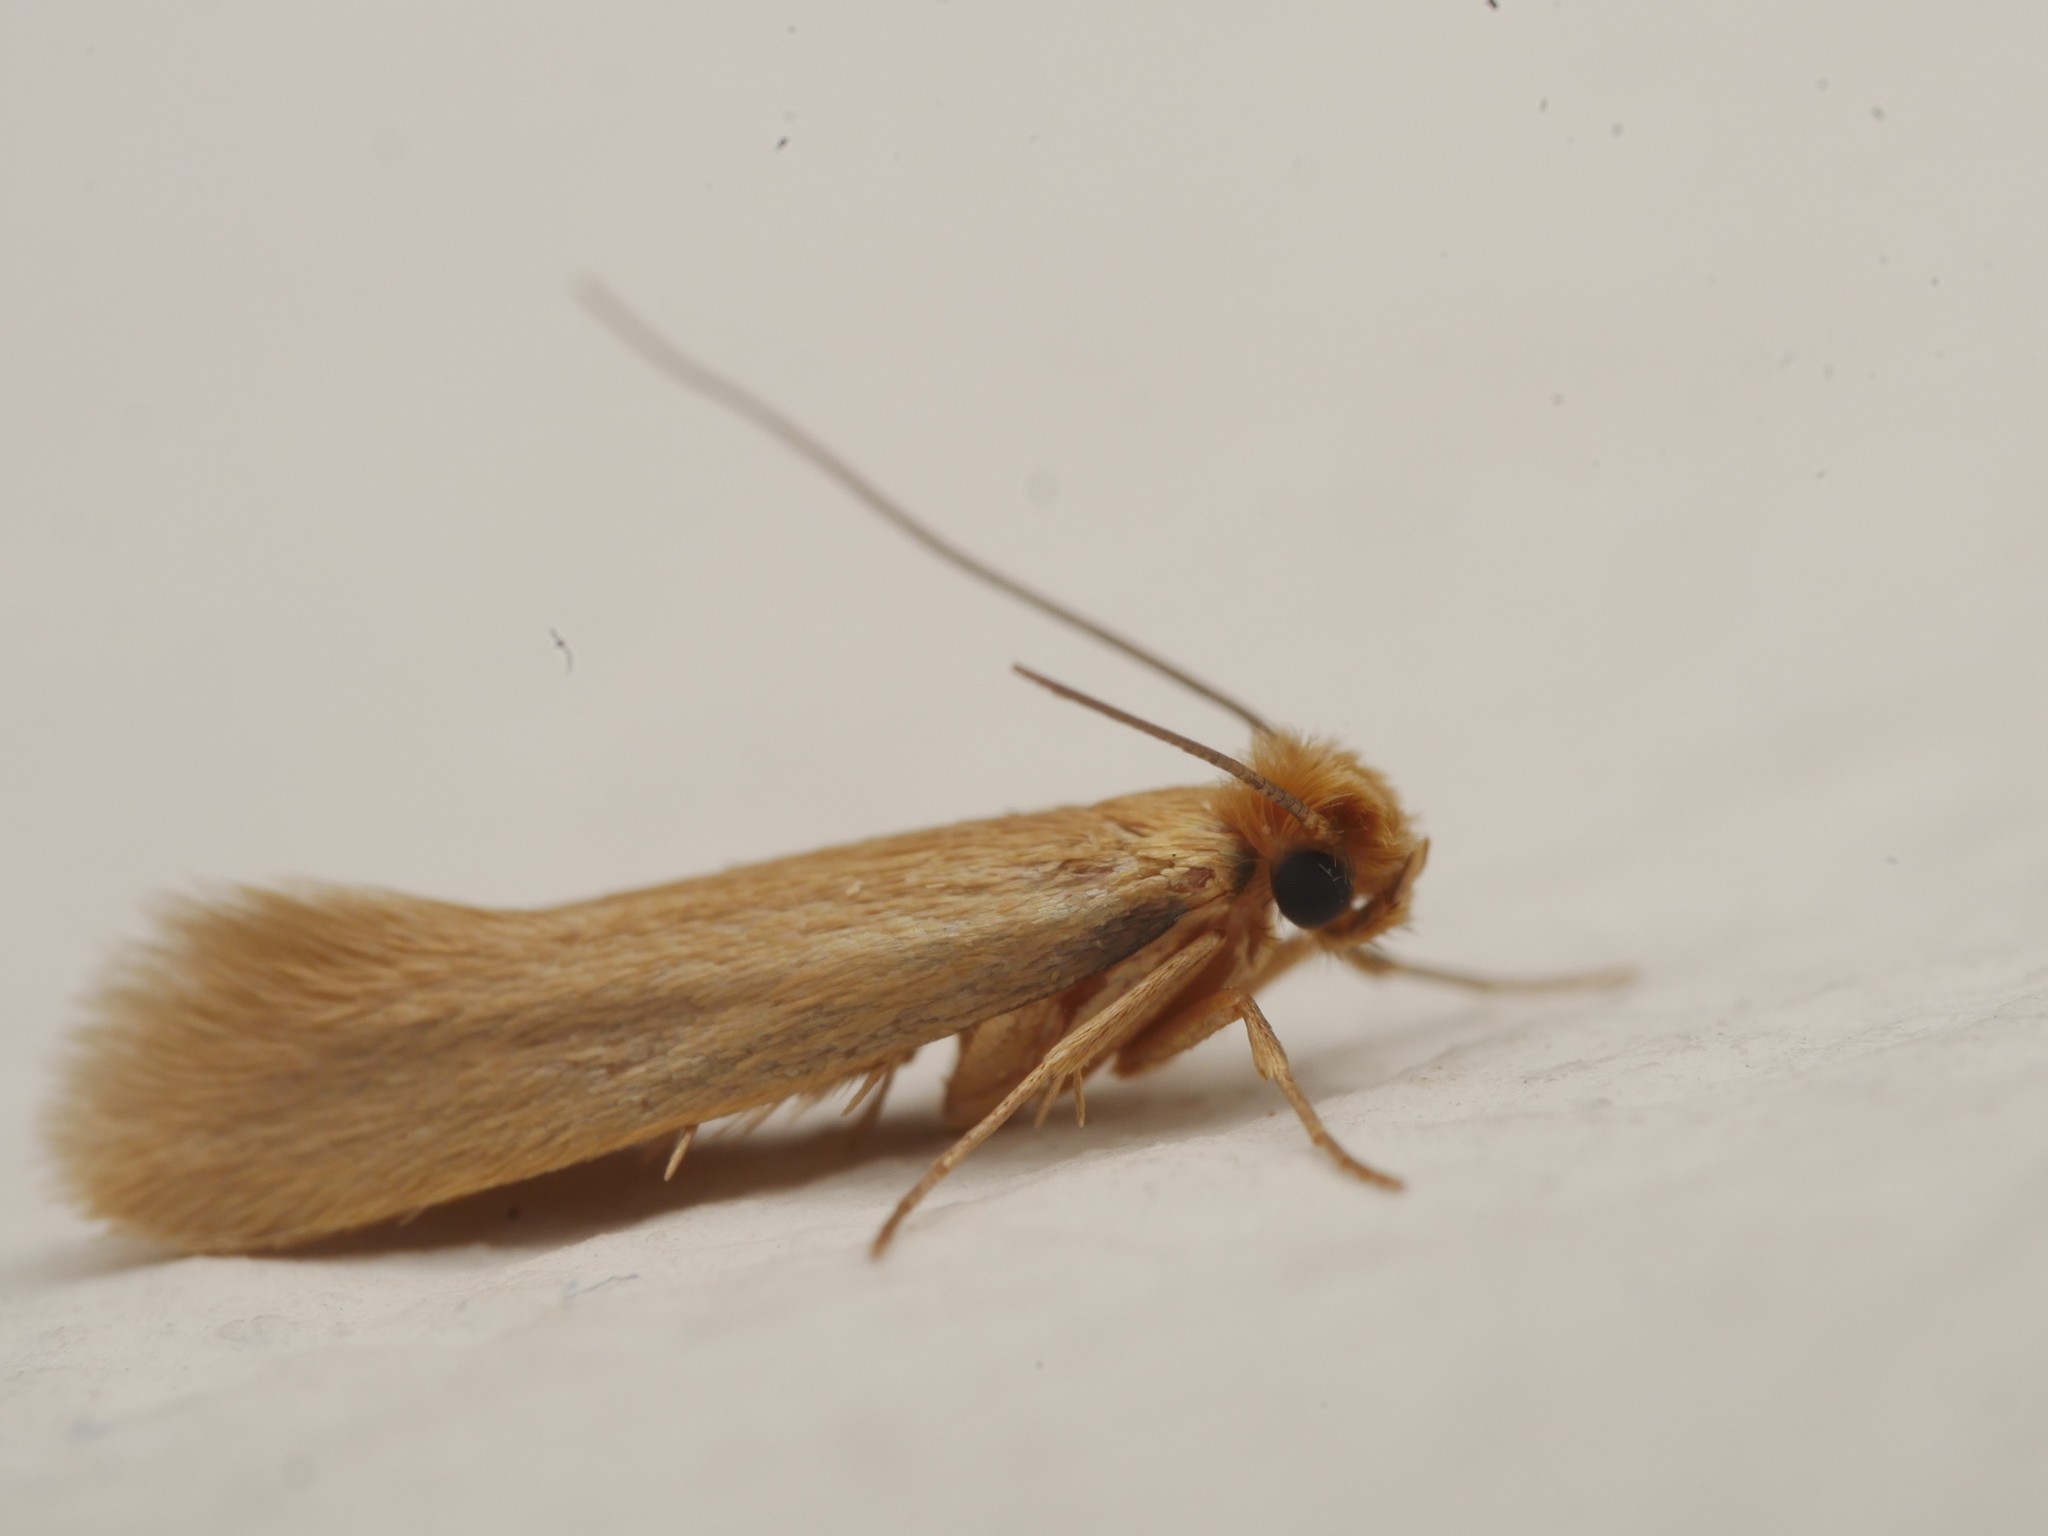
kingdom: Animalia
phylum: Arthropoda
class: Insecta
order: Lepidoptera
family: Tineidae
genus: Tineola
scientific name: Tineola bisselliella
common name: Webbing clothes moth
